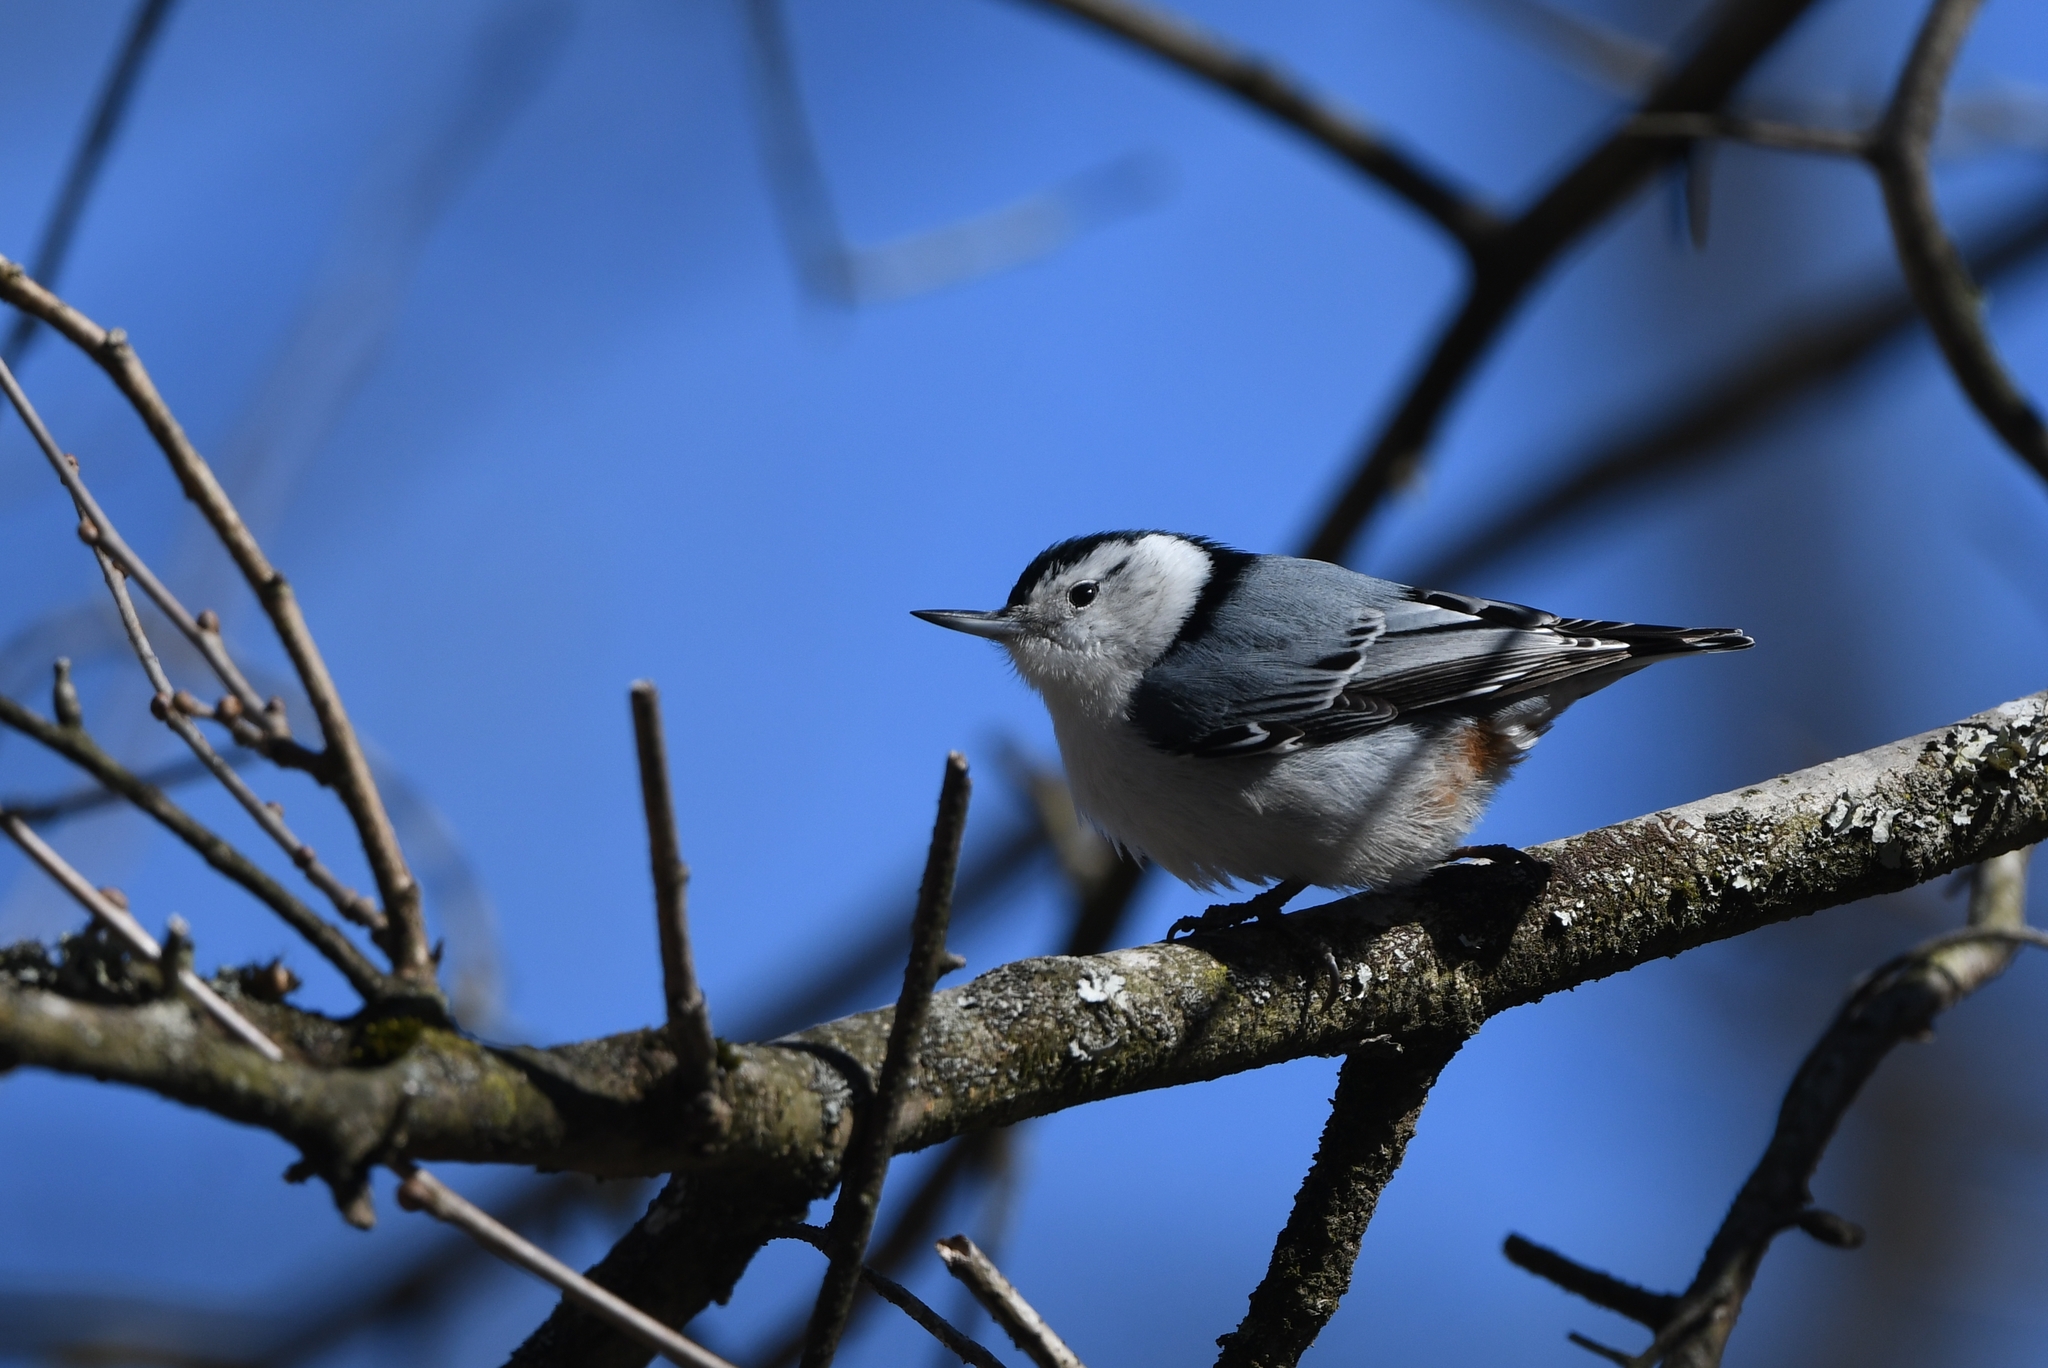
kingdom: Animalia
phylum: Chordata
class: Aves
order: Passeriformes
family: Sittidae
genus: Sitta
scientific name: Sitta carolinensis
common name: White-breasted nuthatch
